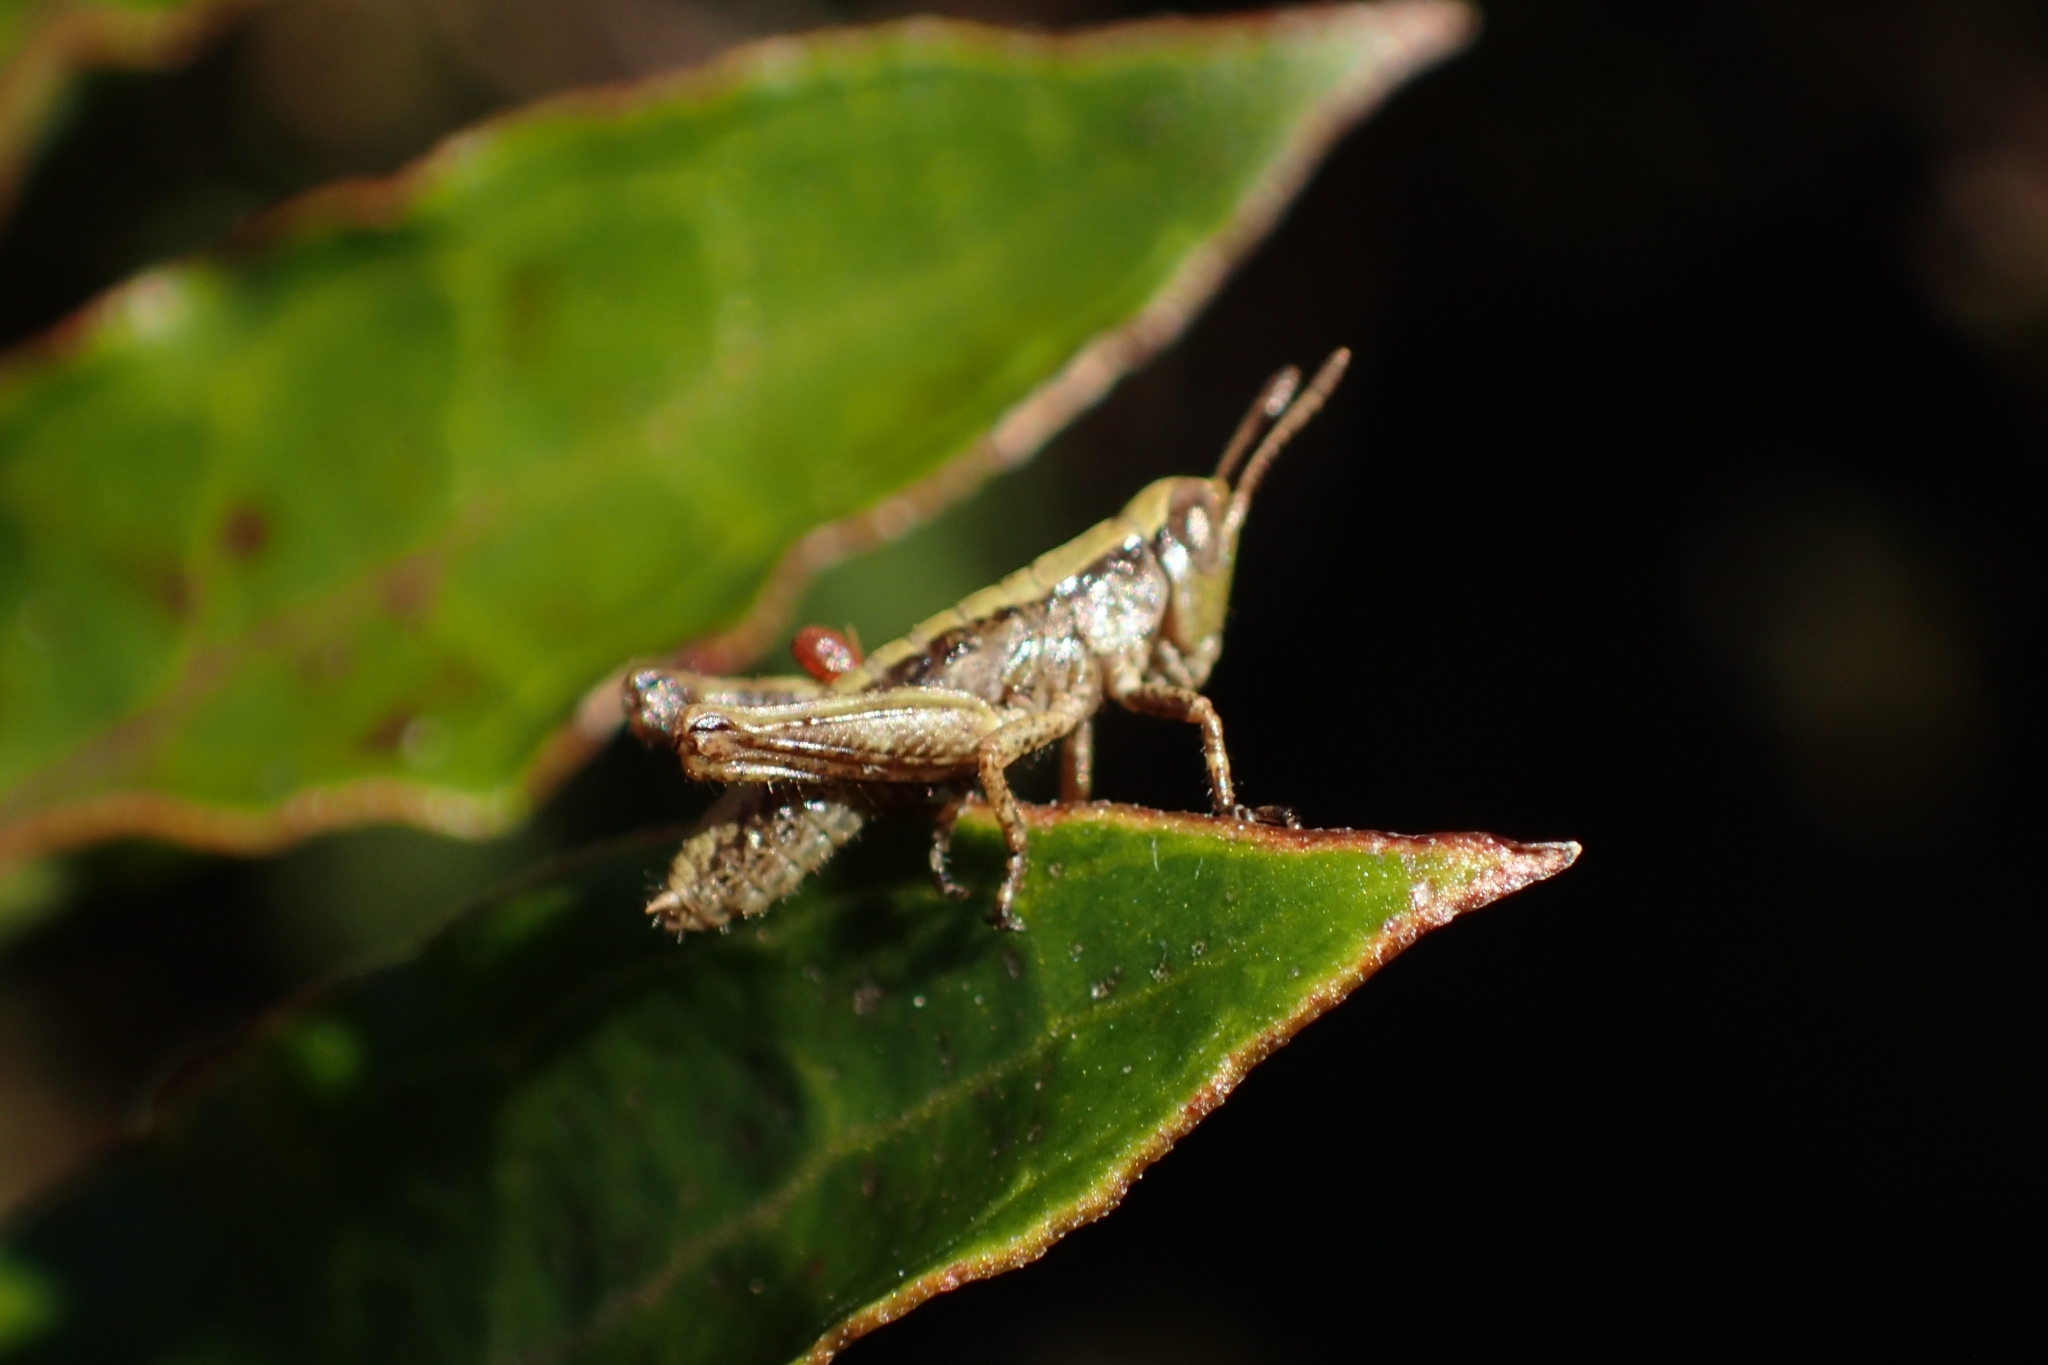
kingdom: Animalia
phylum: Arthropoda
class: Insecta
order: Orthoptera
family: Acrididae
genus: Sigaus
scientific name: Sigaus piliferus
